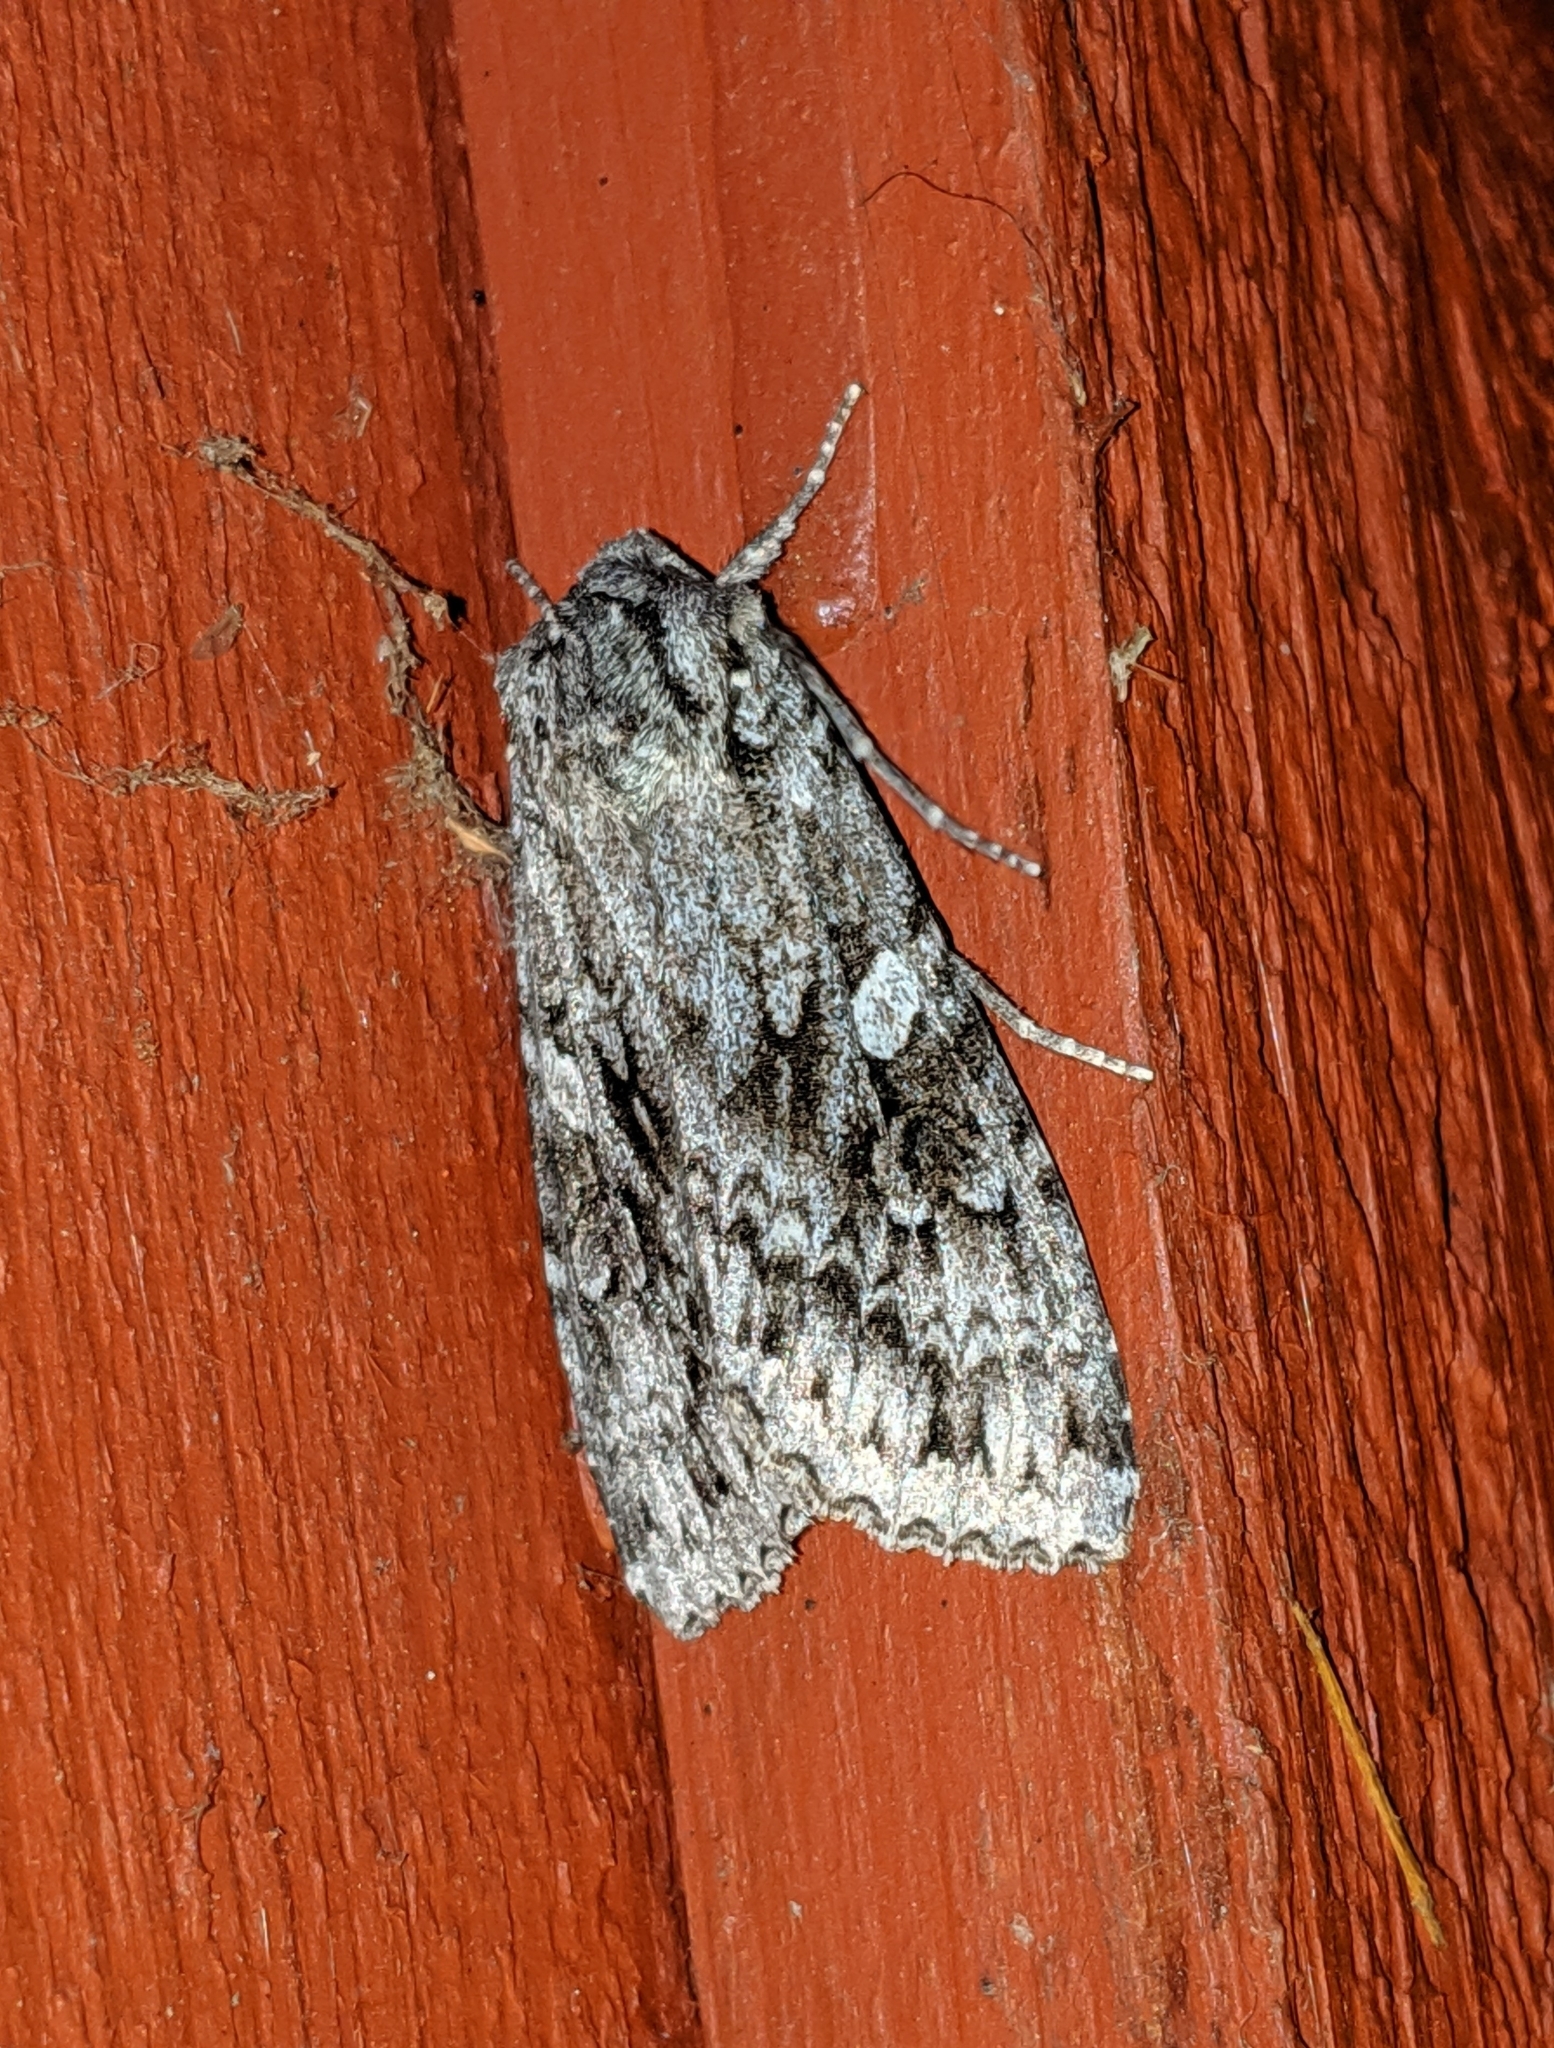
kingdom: Animalia
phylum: Arthropoda
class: Insecta
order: Lepidoptera
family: Noctuidae
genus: Eurois
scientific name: Eurois occulta
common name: Great brocade
